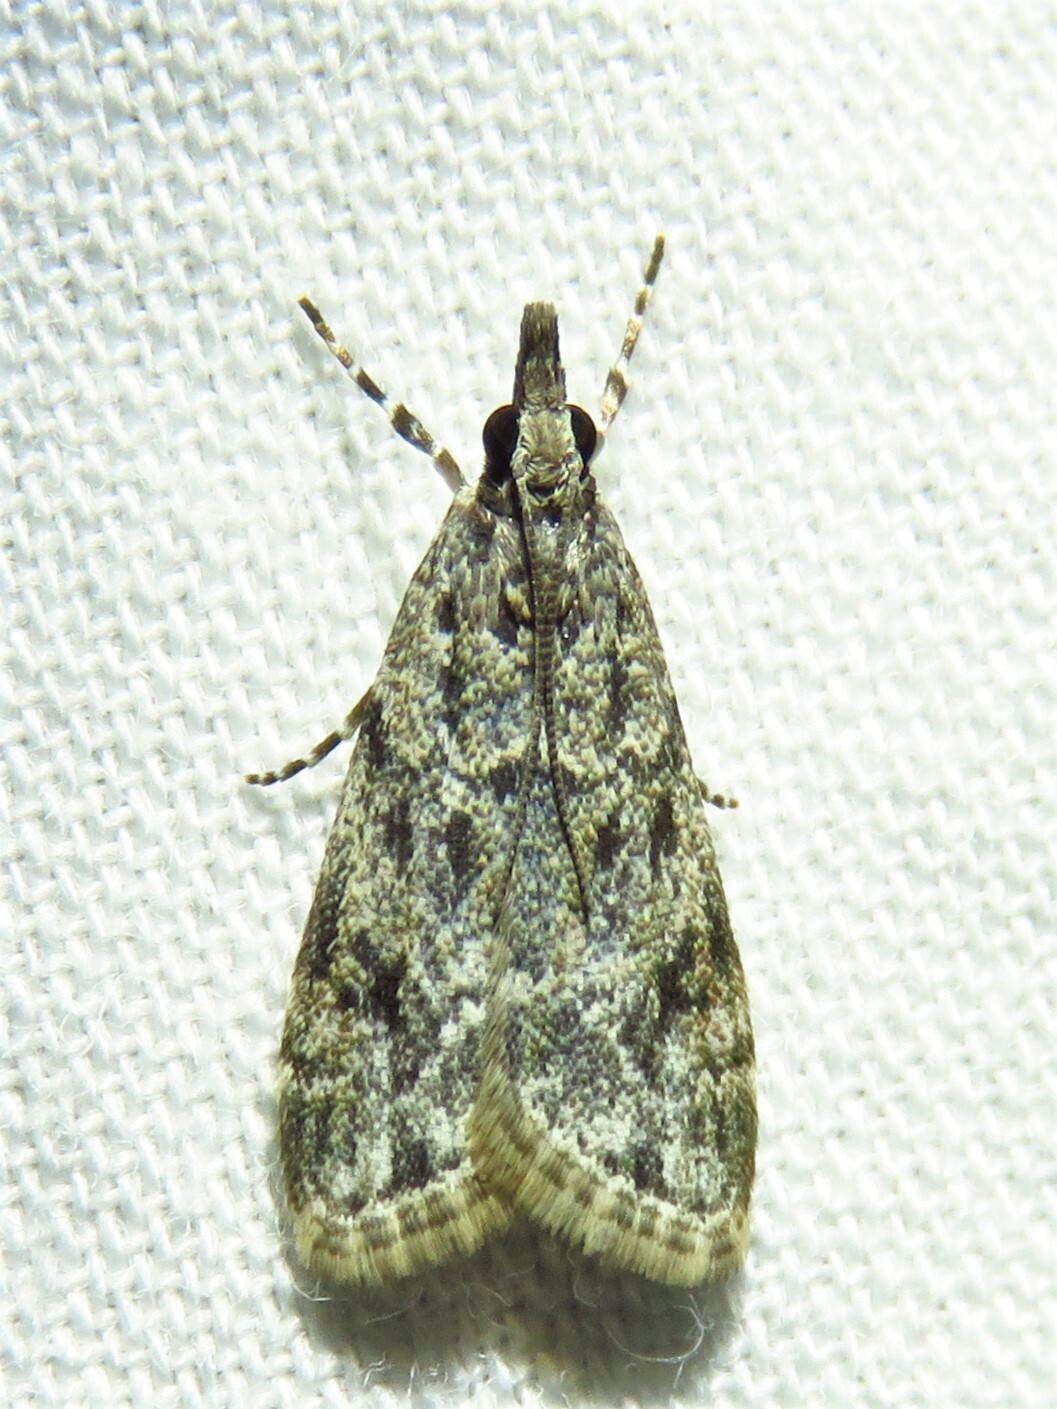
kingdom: Animalia
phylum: Arthropoda
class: Insecta
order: Lepidoptera
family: Crambidae
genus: Eudonia
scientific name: Eudonia heterosalis
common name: Mcdunnough's eudonia
